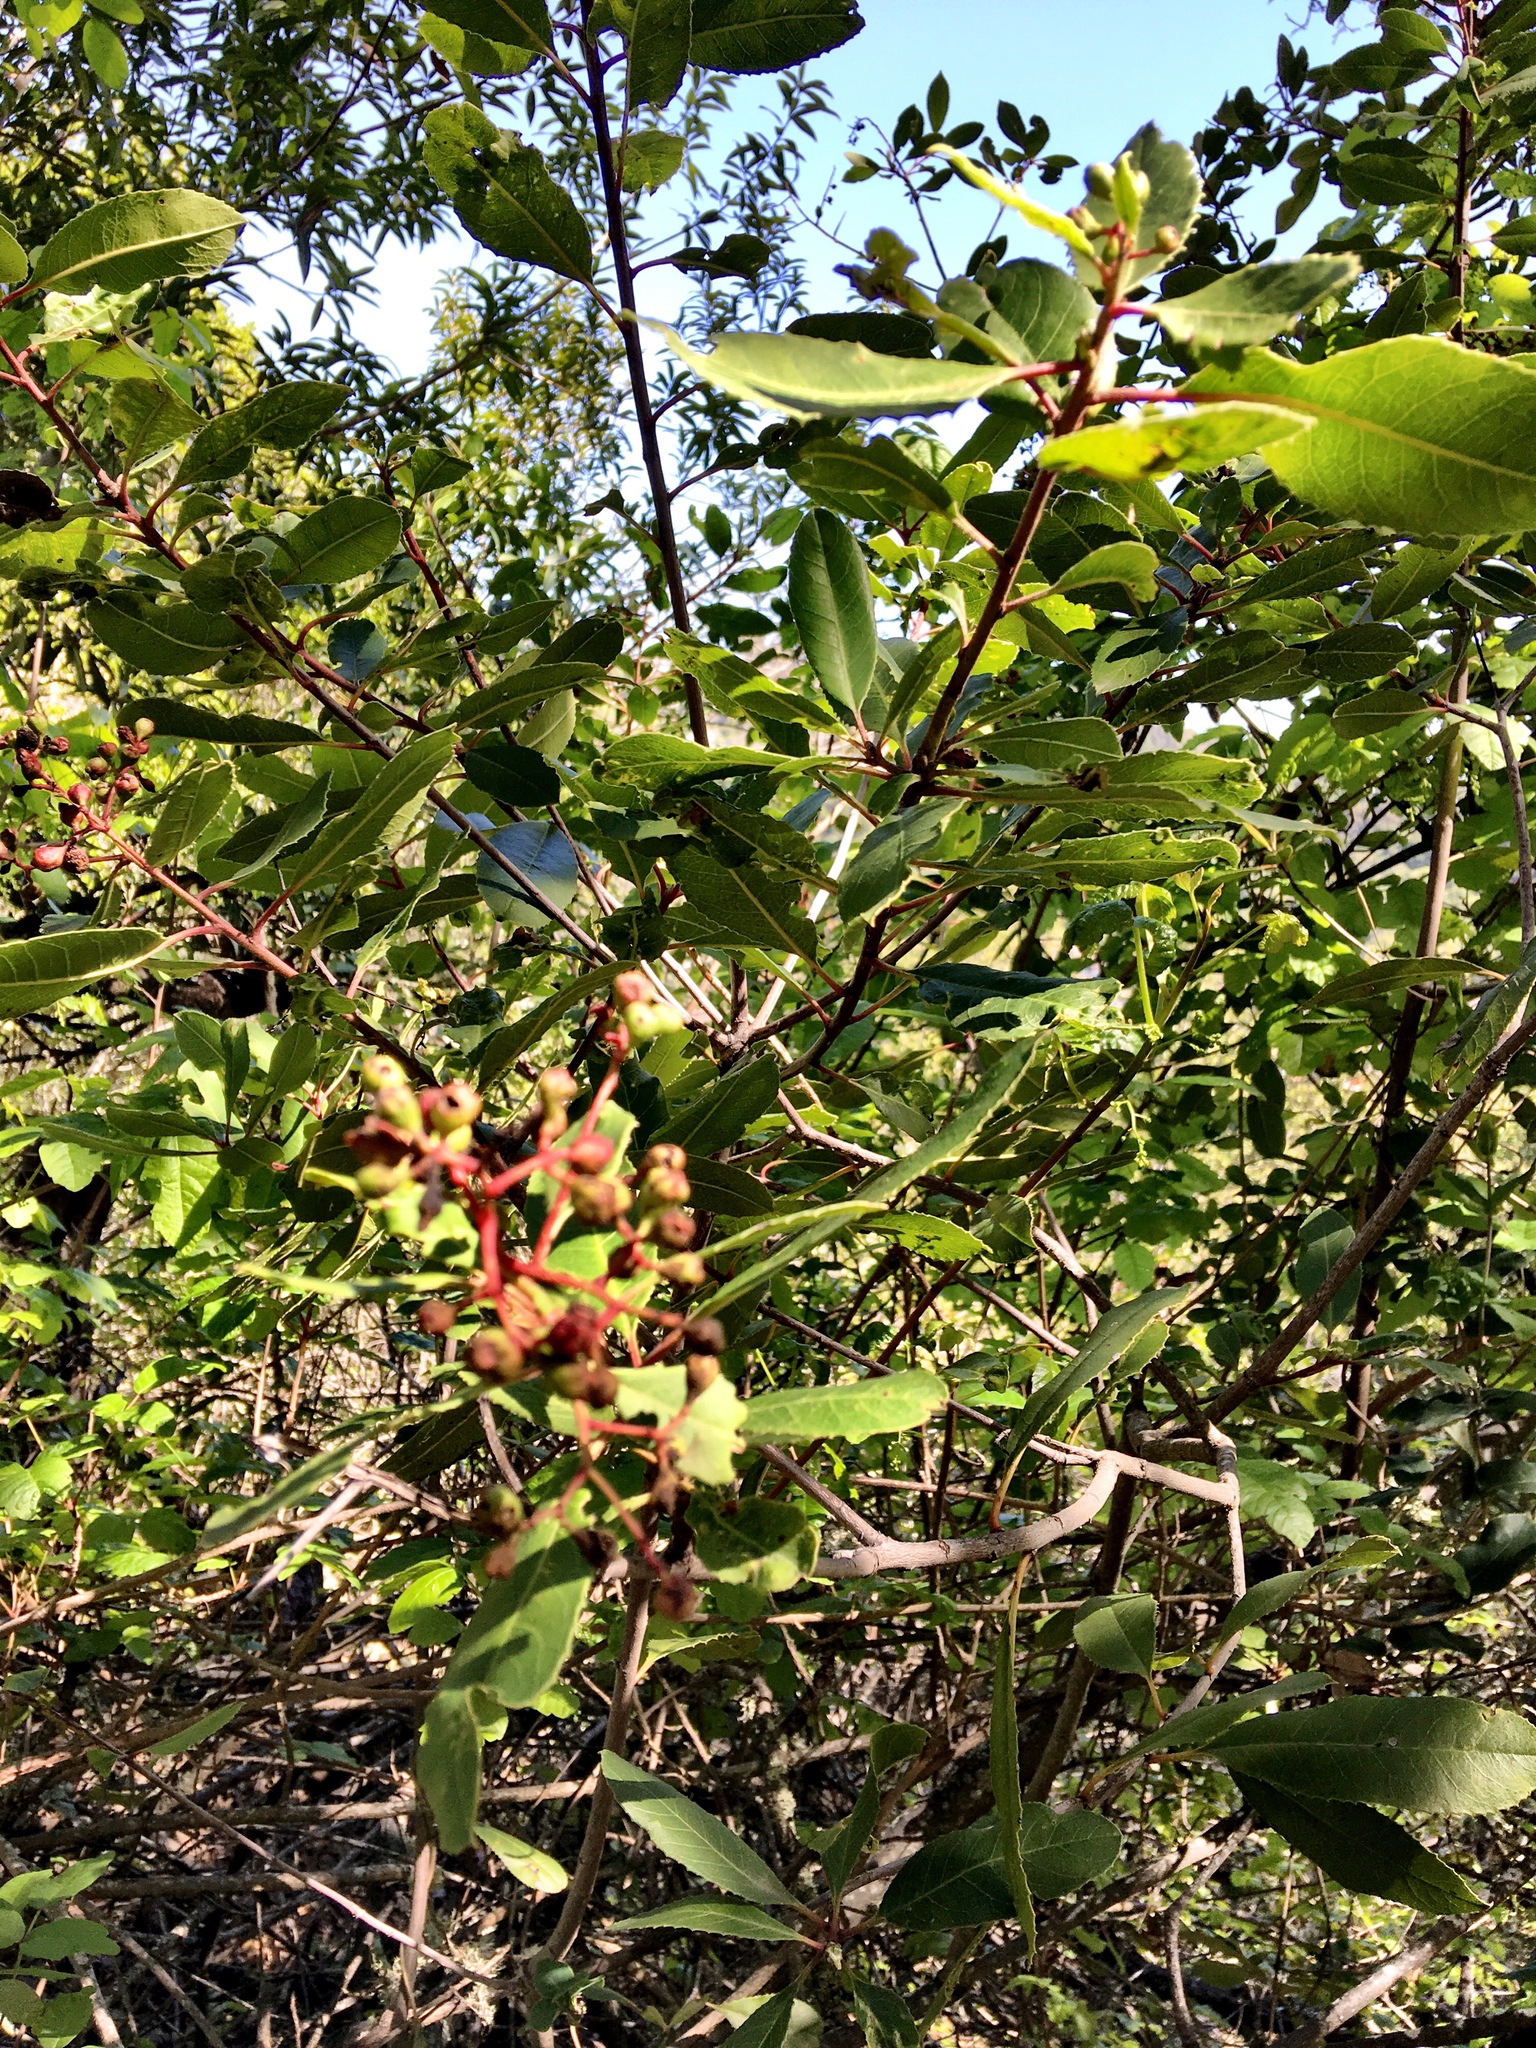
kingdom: Plantae
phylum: Tracheophyta
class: Magnoliopsida
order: Rosales
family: Rosaceae
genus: Heteromeles
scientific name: Heteromeles arbutifolia
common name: California-holly
